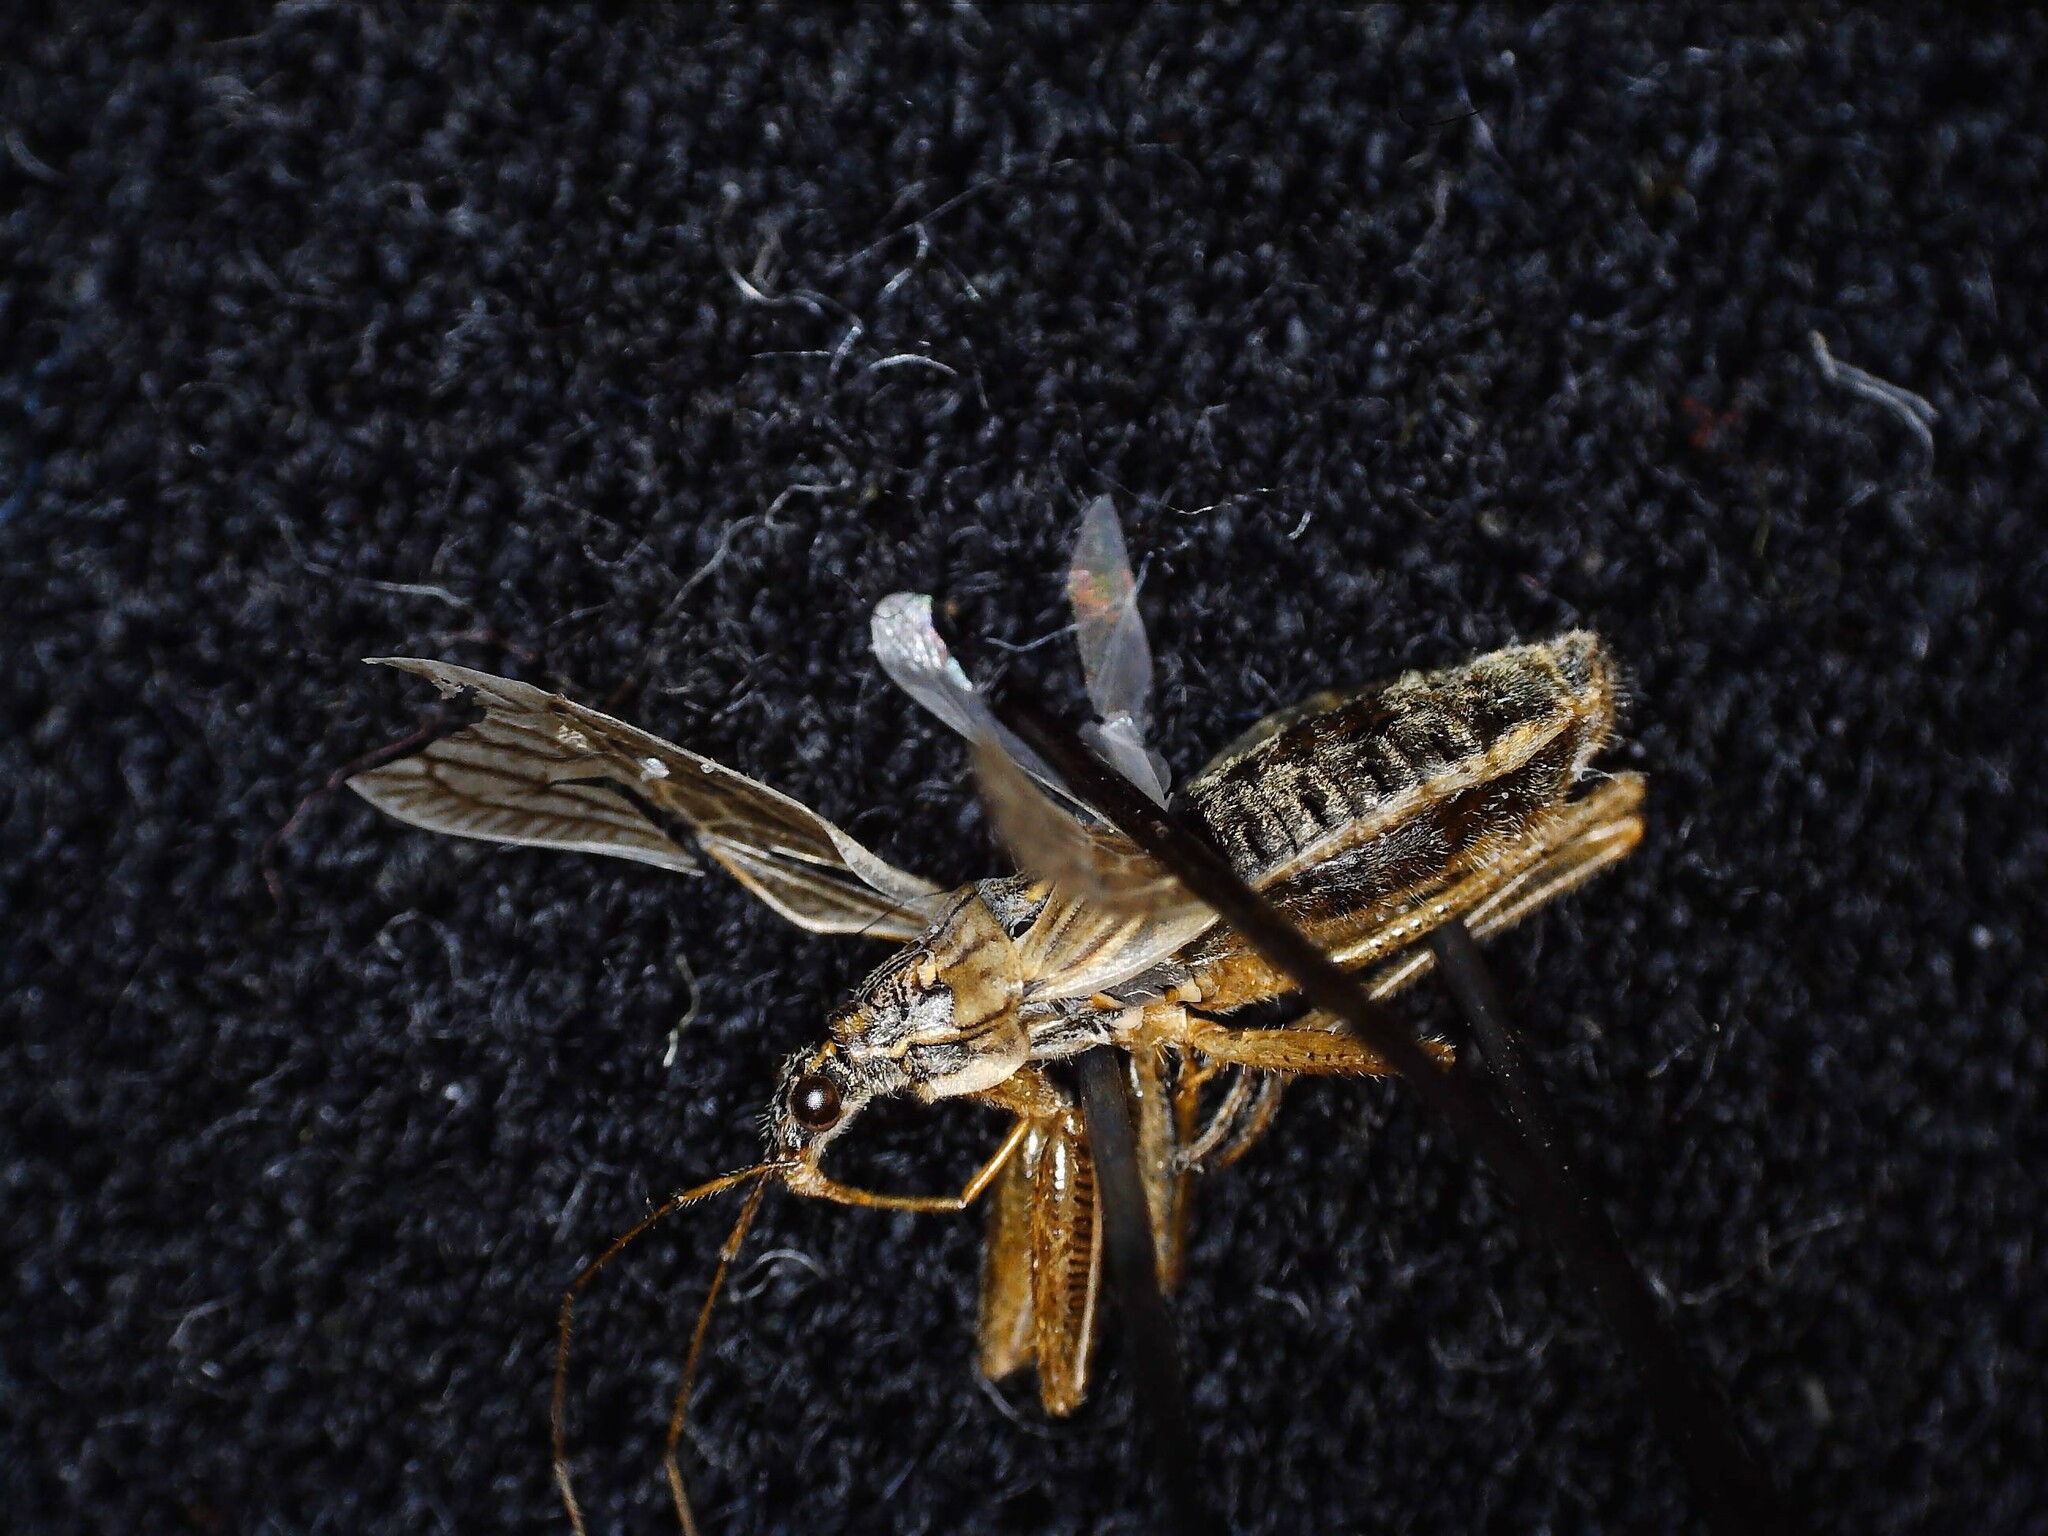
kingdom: Animalia
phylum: Arthropoda
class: Insecta
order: Hemiptera
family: Nabidae
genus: Nabis
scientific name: Nabis flavomarginatus
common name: Broad damselbug
